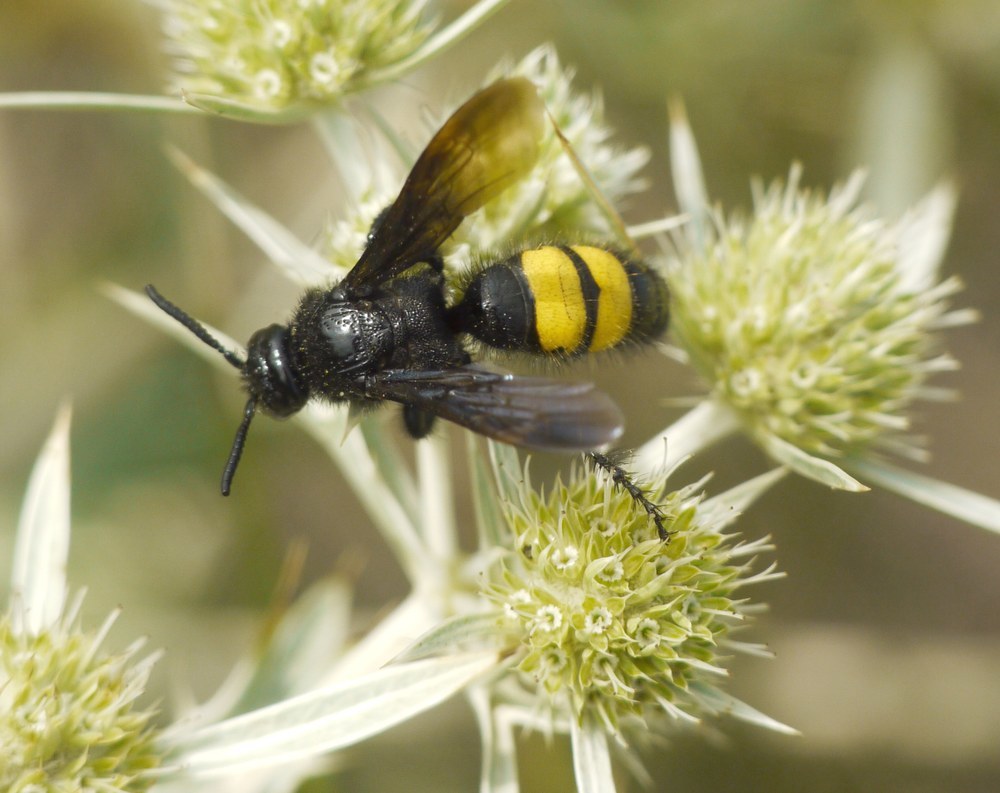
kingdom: Animalia
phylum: Arthropoda
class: Insecta
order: Hymenoptera
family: Scoliidae
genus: Scolia
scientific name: Scolia hirta
